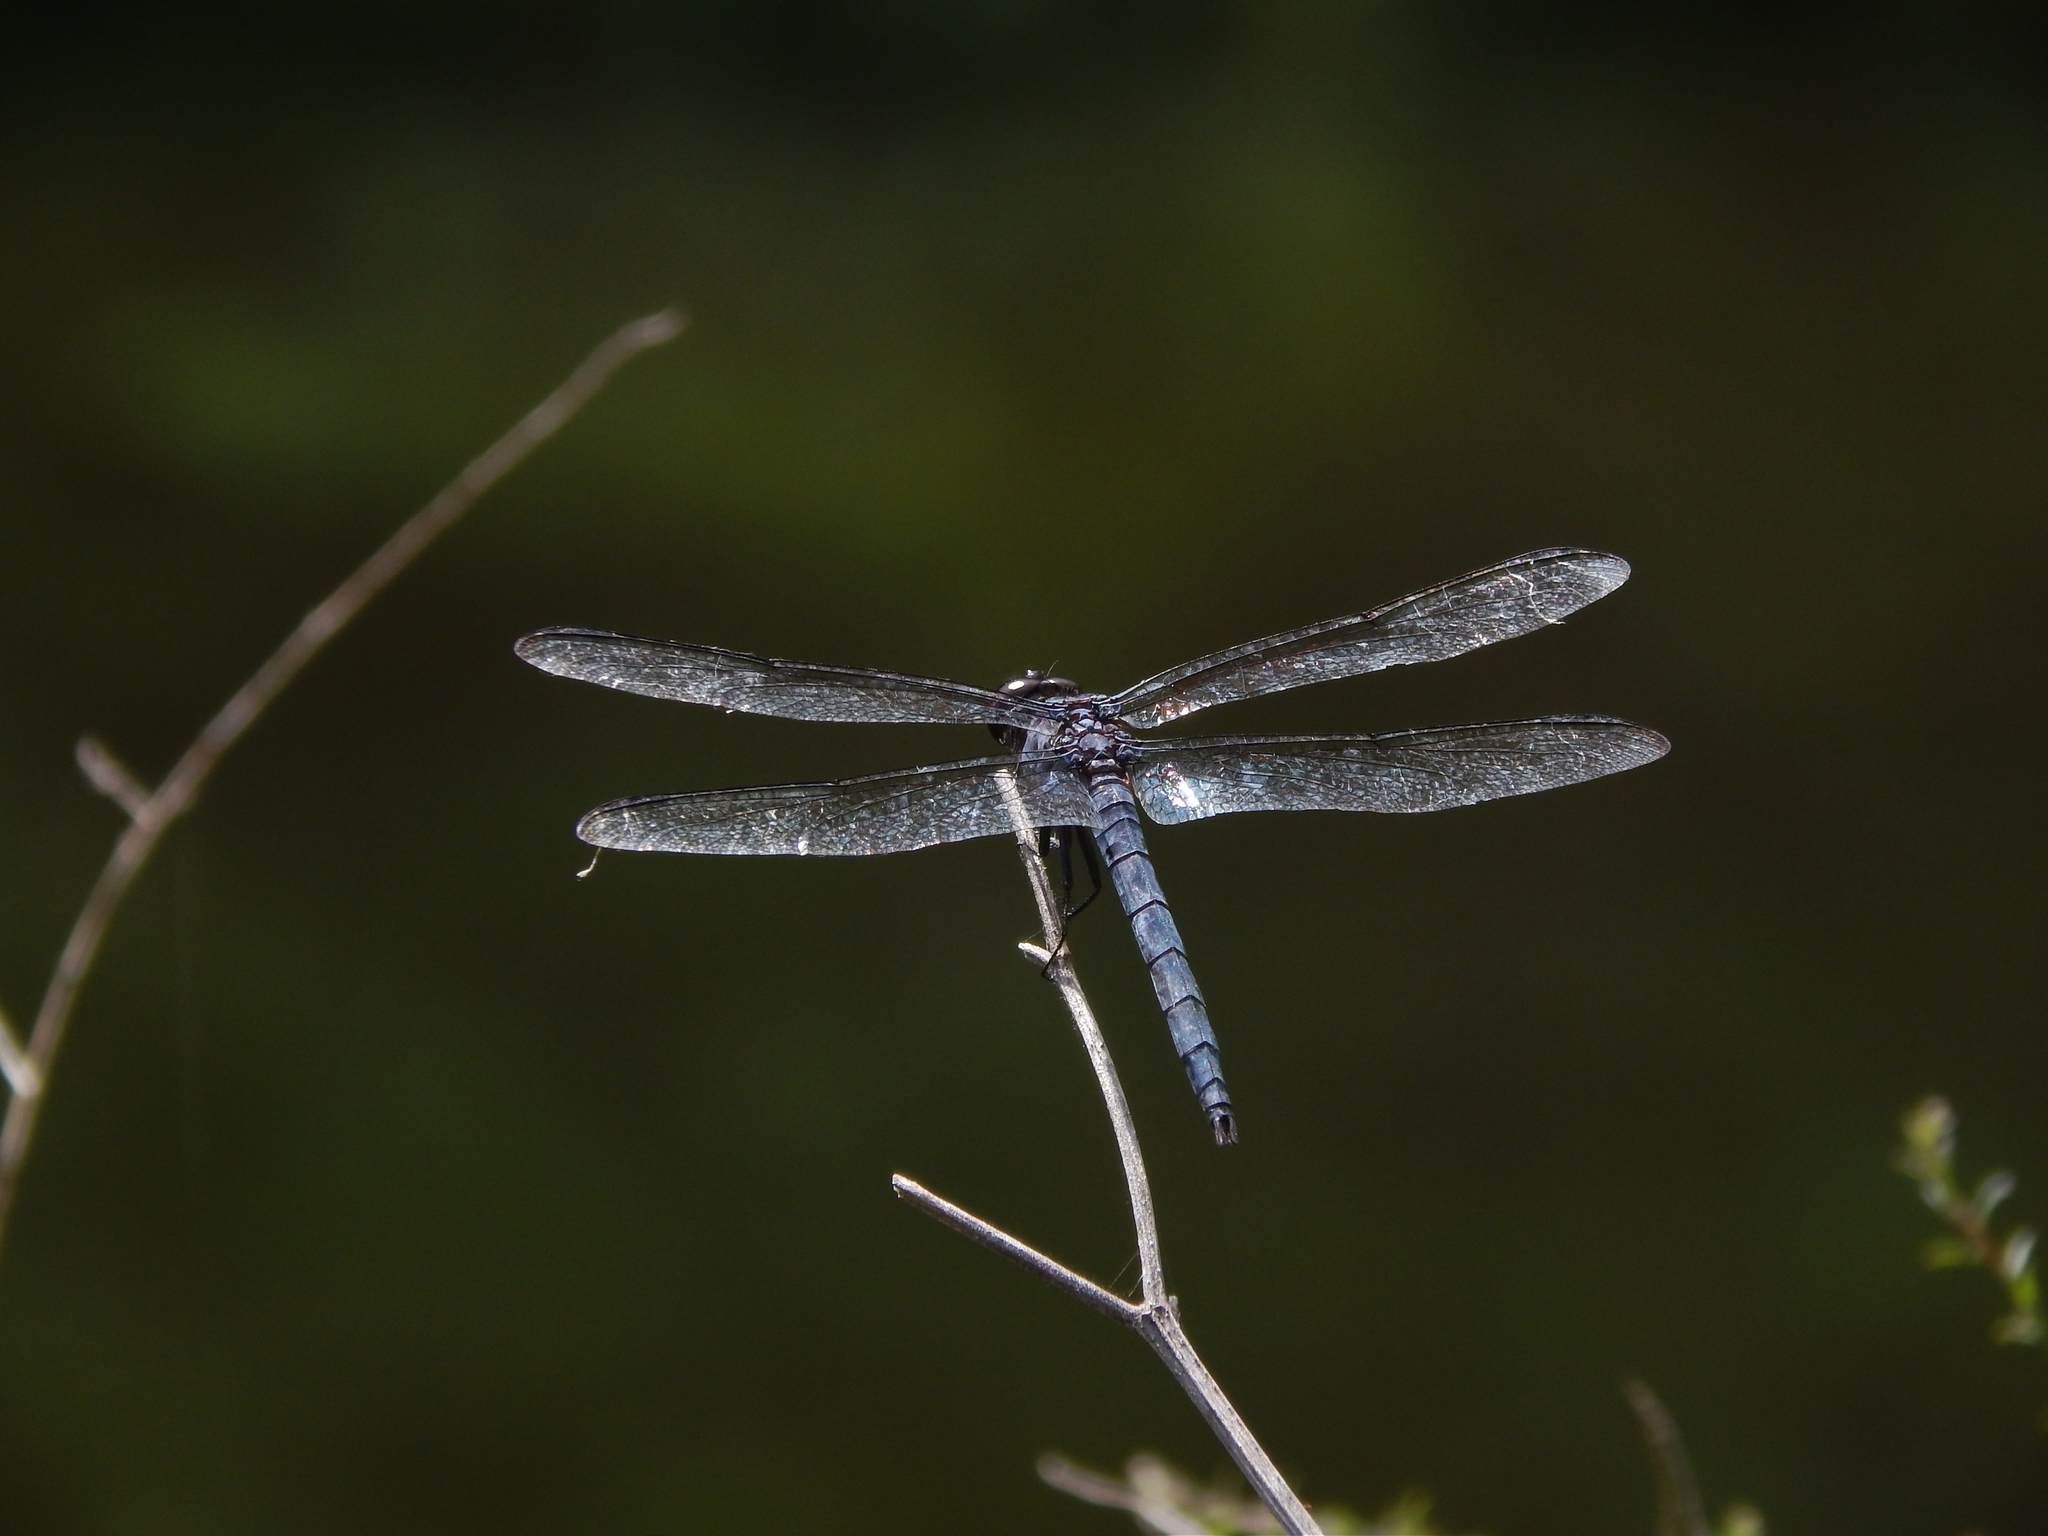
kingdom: Animalia
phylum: Arthropoda
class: Insecta
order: Odonata
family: Libellulidae
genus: Libellula
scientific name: Libellula incesta
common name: Slaty skimmer
